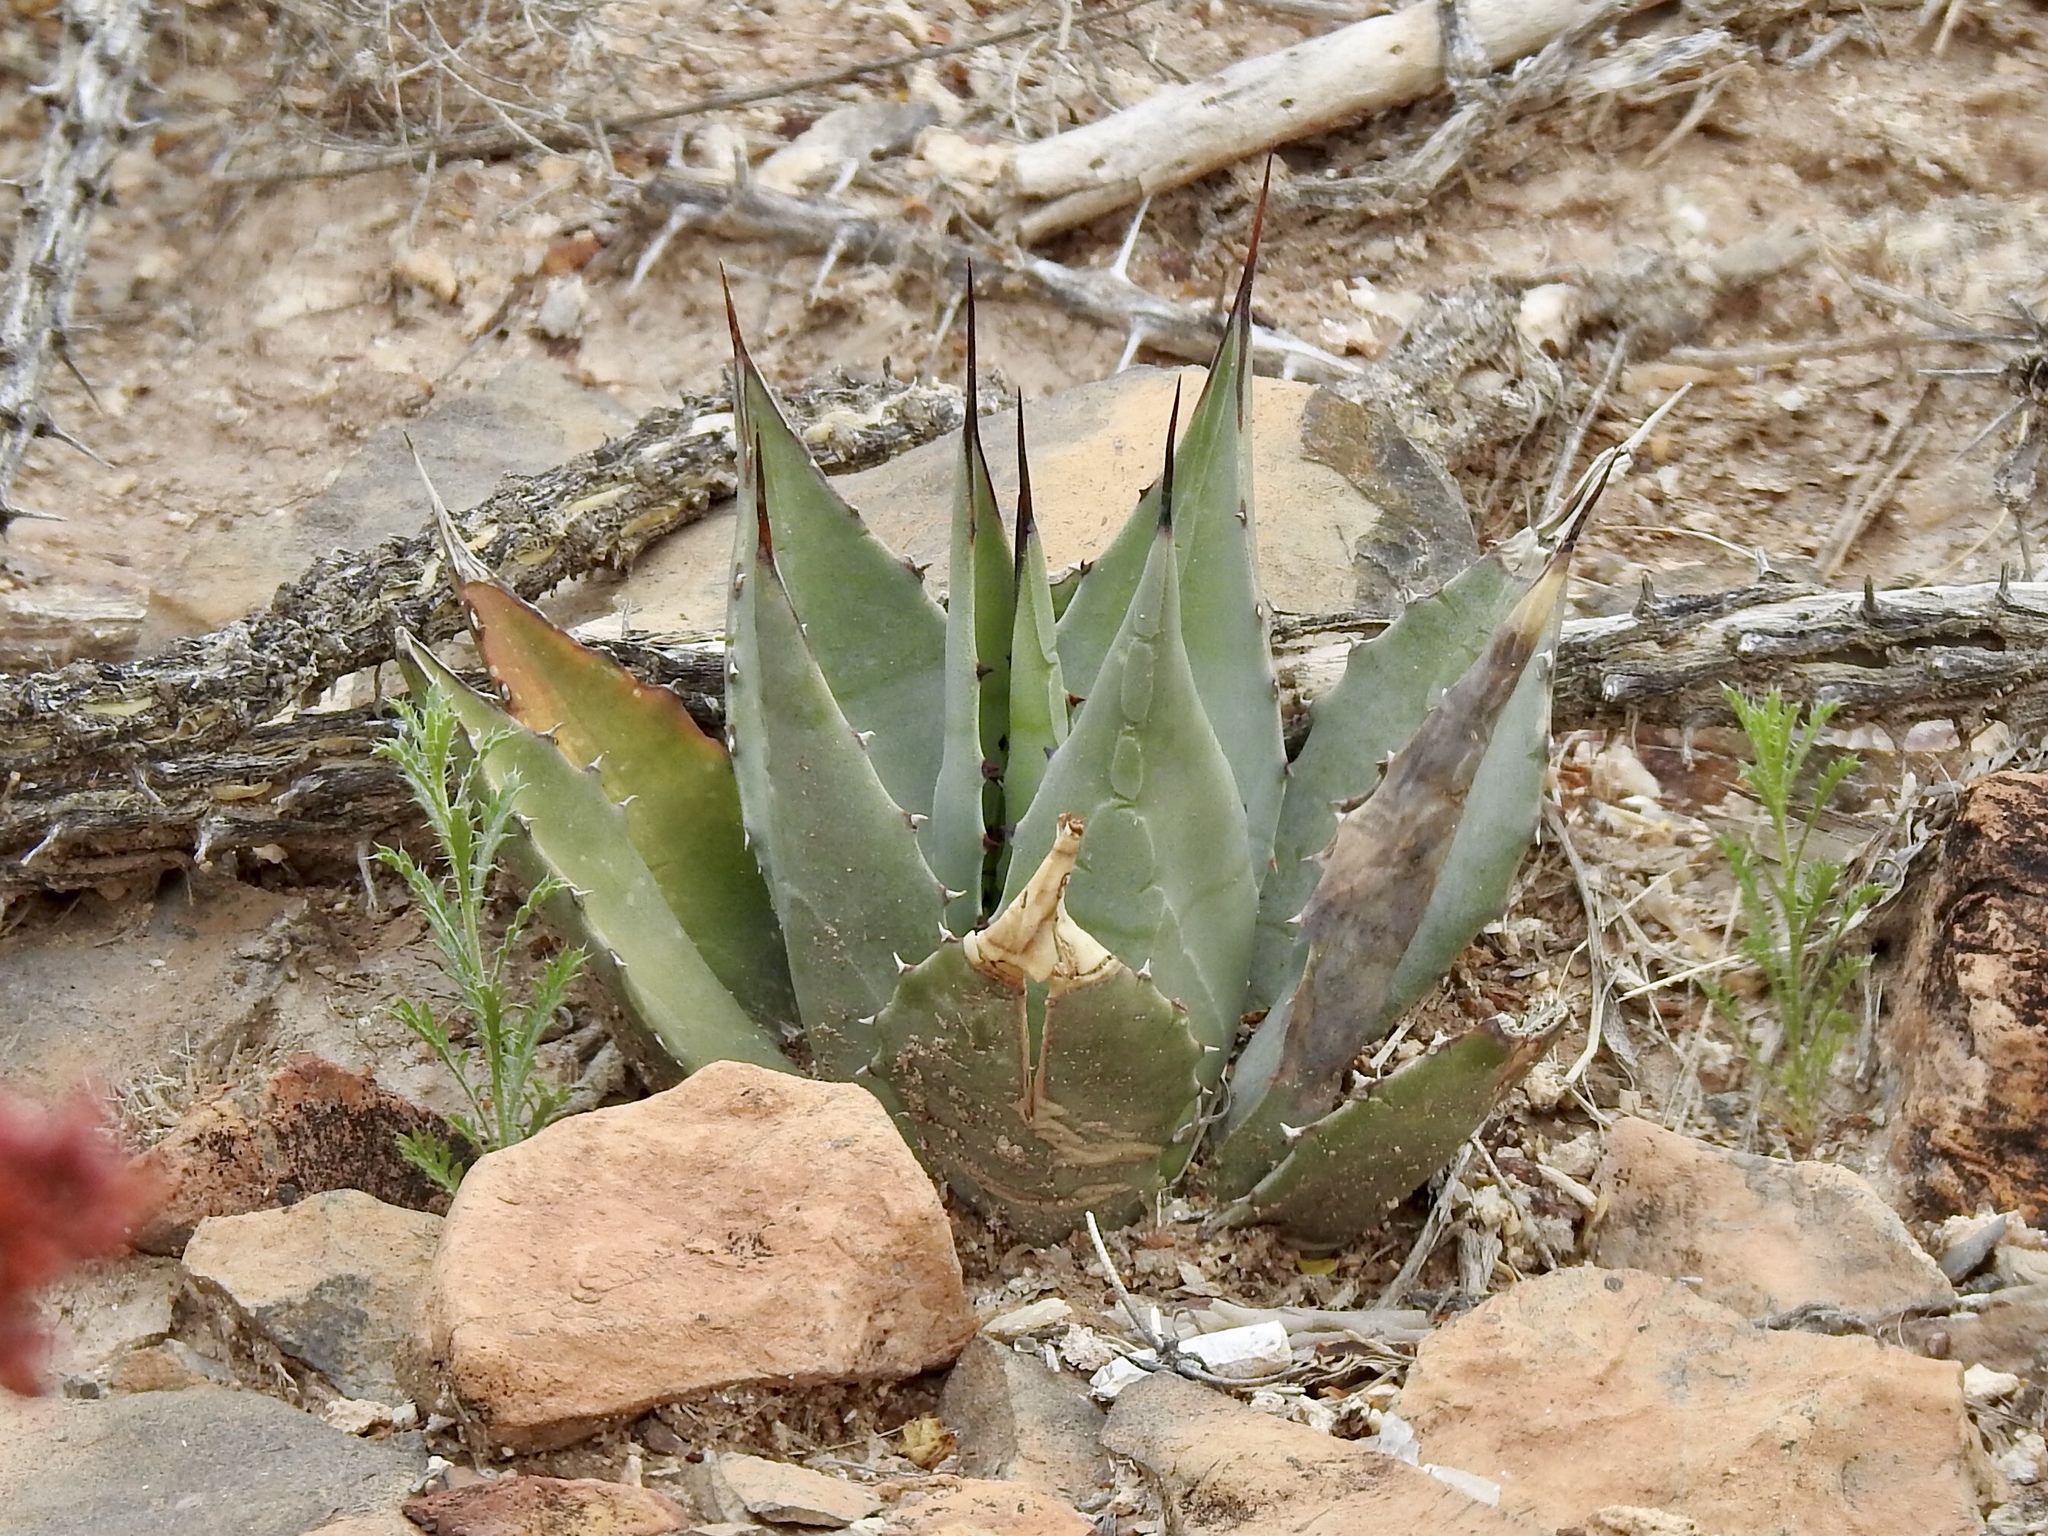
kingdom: Plantae
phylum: Tracheophyta
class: Liliopsida
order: Asparagales
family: Asparagaceae
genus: Agave
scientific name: Agave parryi
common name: Parry's agave
